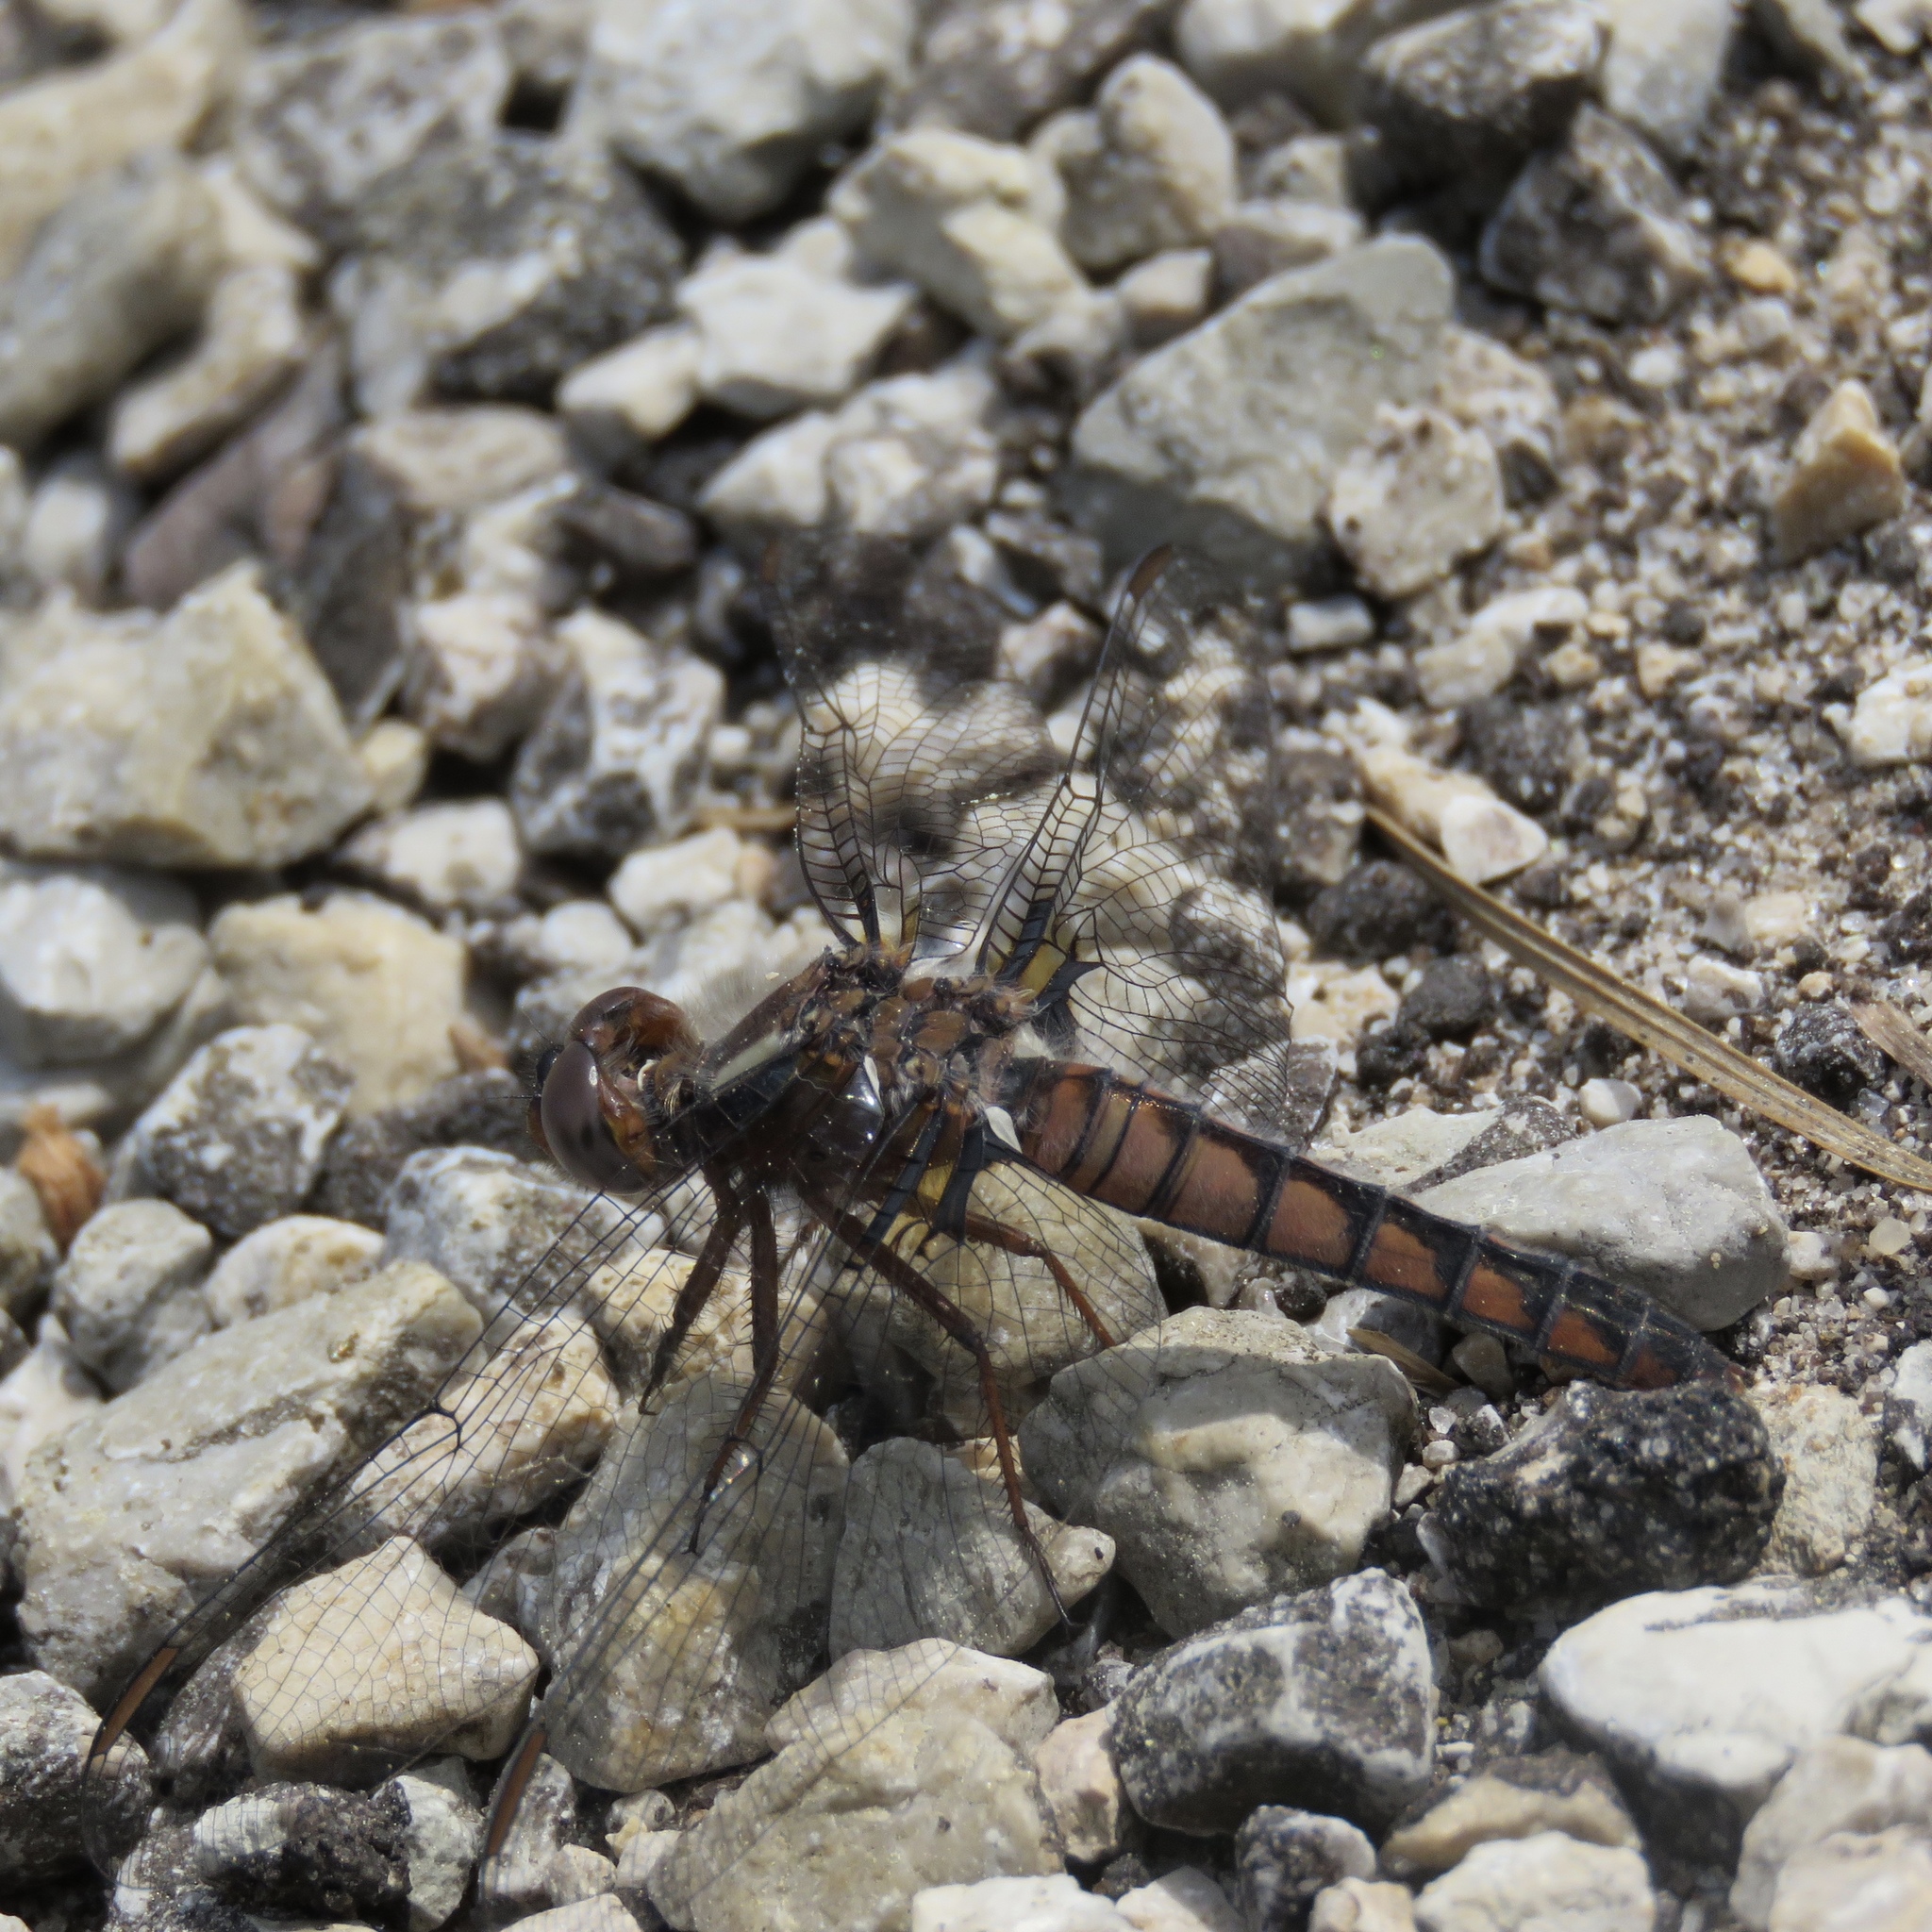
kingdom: Animalia
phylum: Arthropoda
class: Insecta
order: Odonata
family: Libellulidae
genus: Ladona
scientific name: Ladona deplanata
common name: Blue corporal
